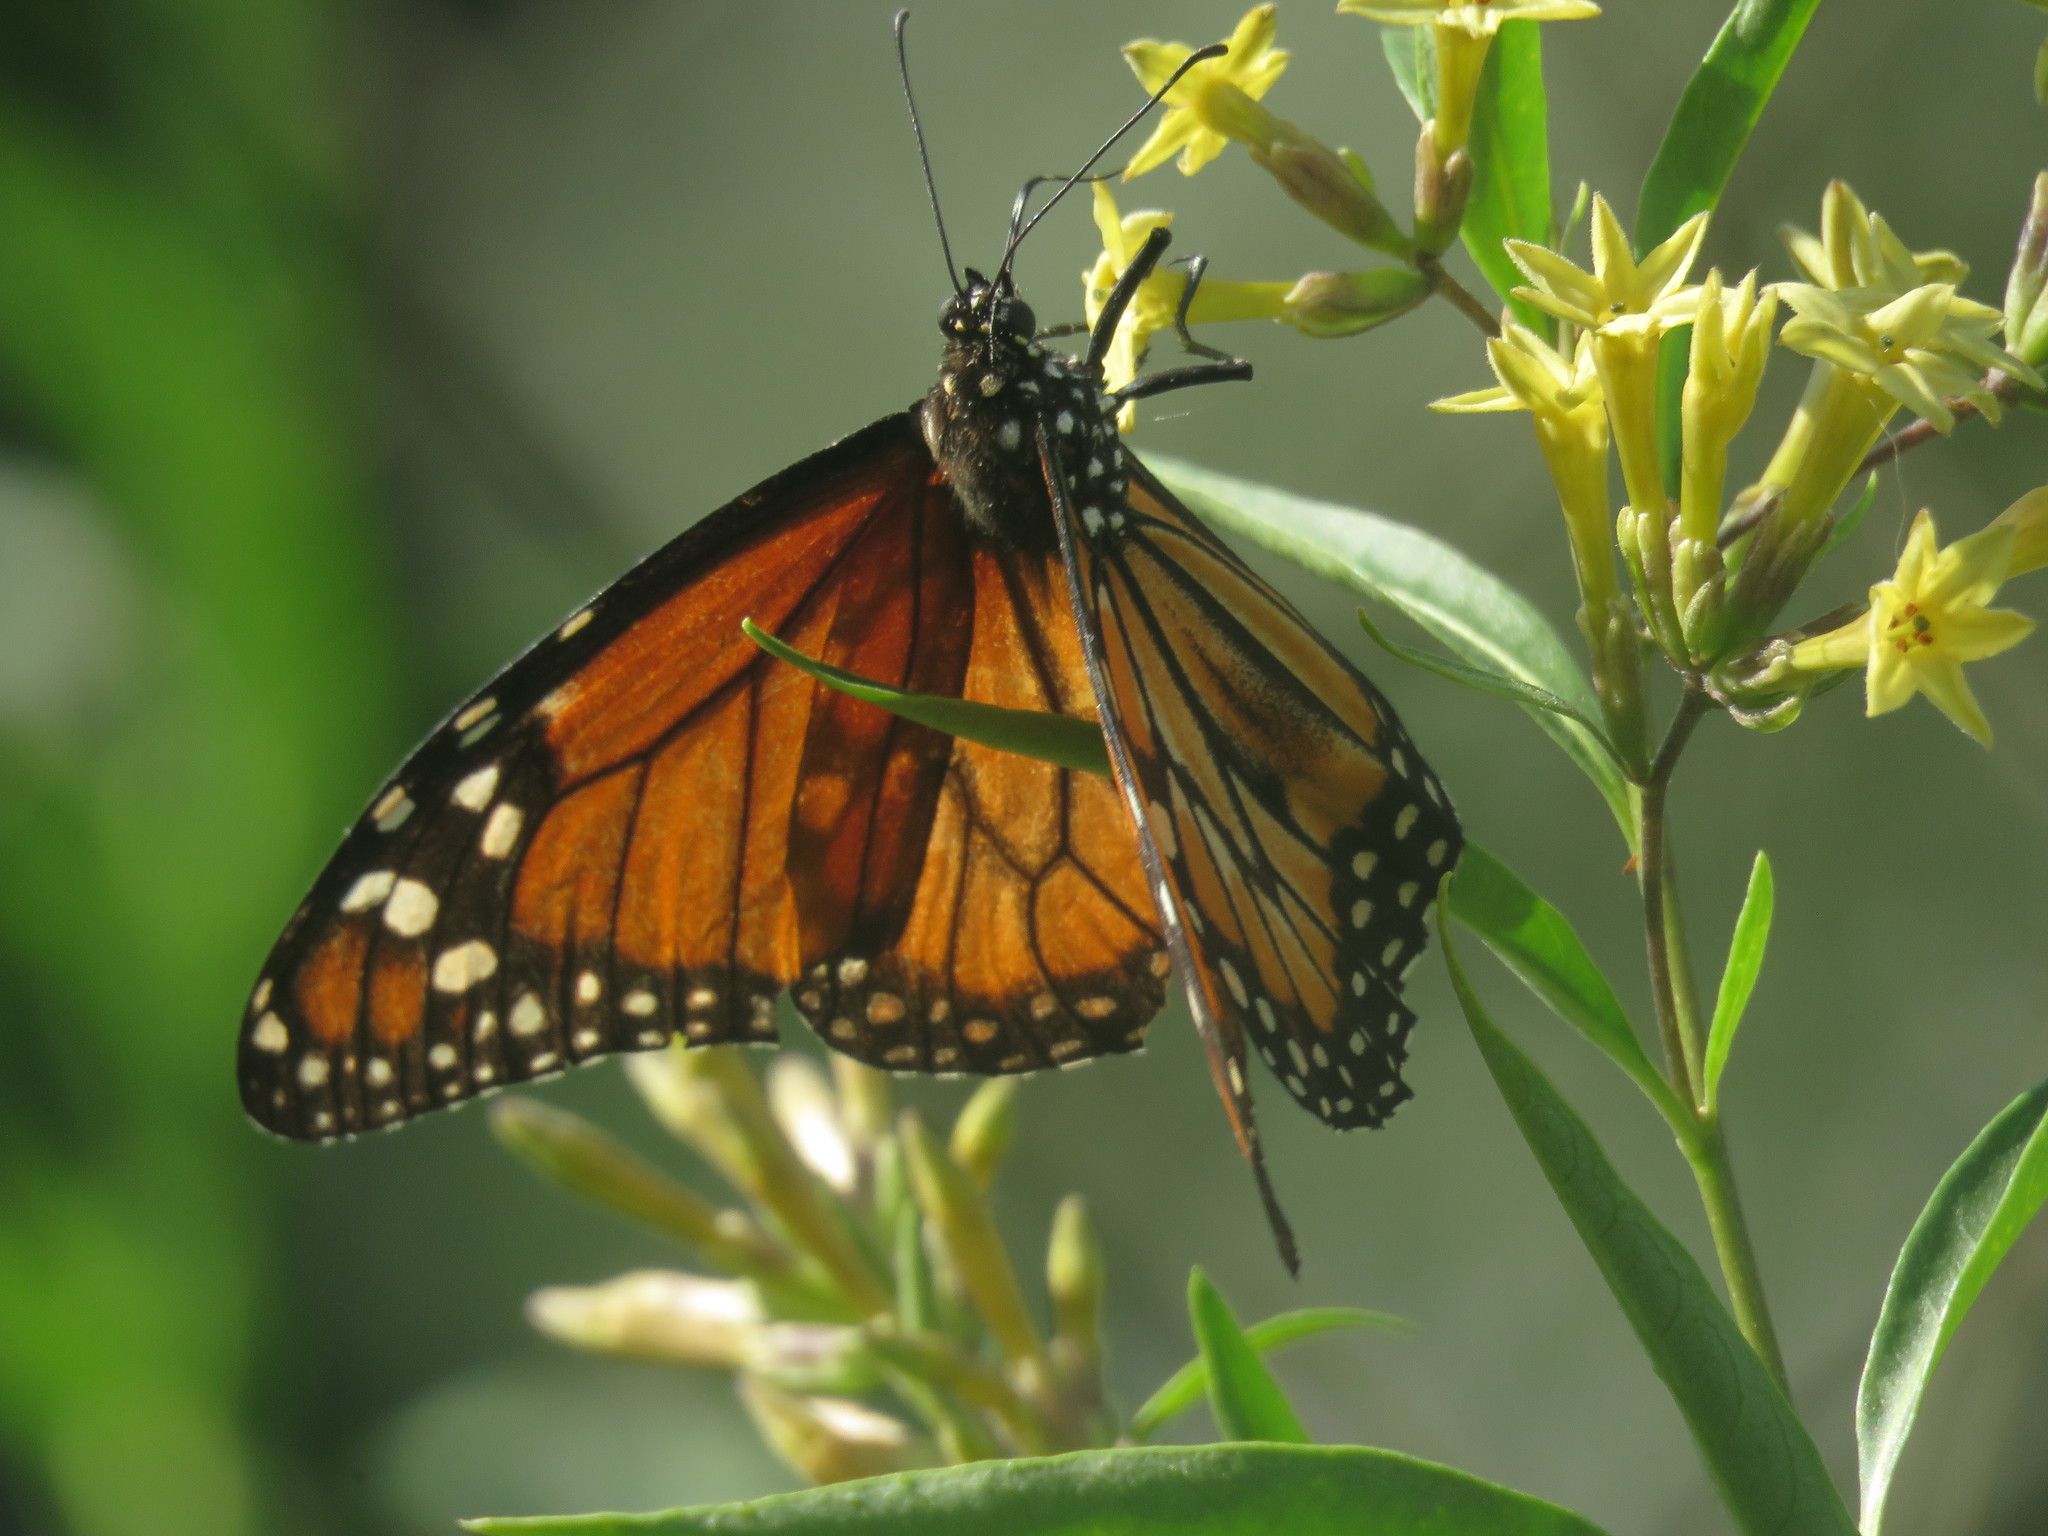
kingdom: Animalia
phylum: Arthropoda
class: Insecta
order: Lepidoptera
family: Nymphalidae
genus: Danaus
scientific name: Danaus erippus
